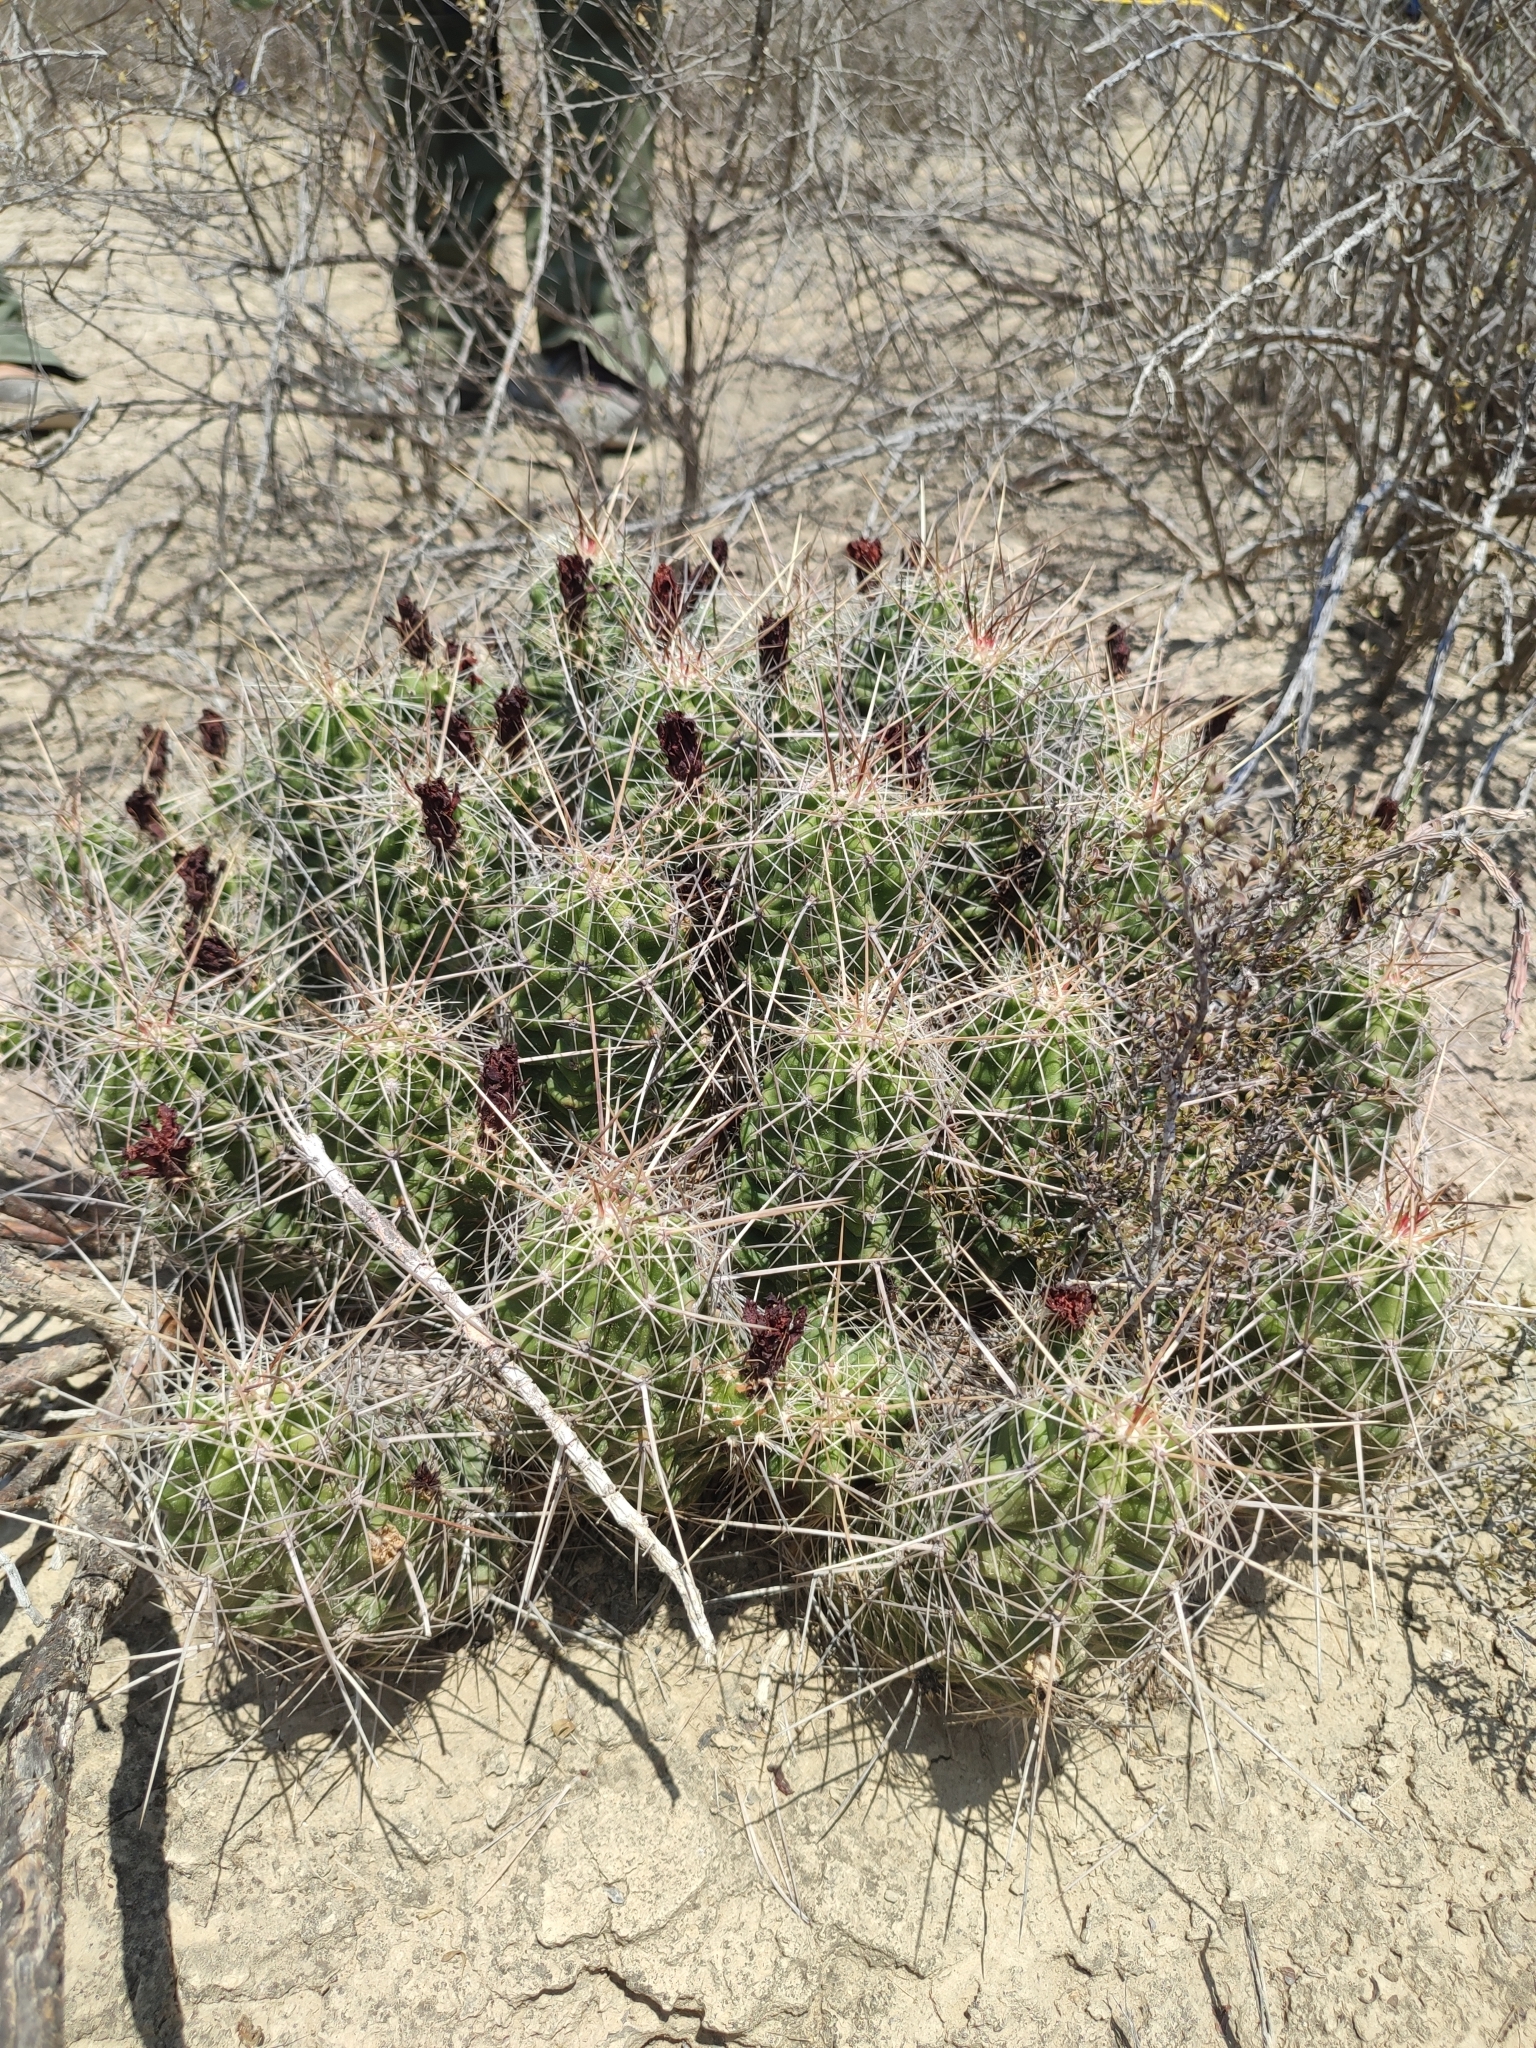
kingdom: Plantae
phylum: Tracheophyta
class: Magnoliopsida
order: Caryophyllales
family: Cactaceae
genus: Echinocereus
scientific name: Echinocereus enneacanthus
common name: Pitaya
